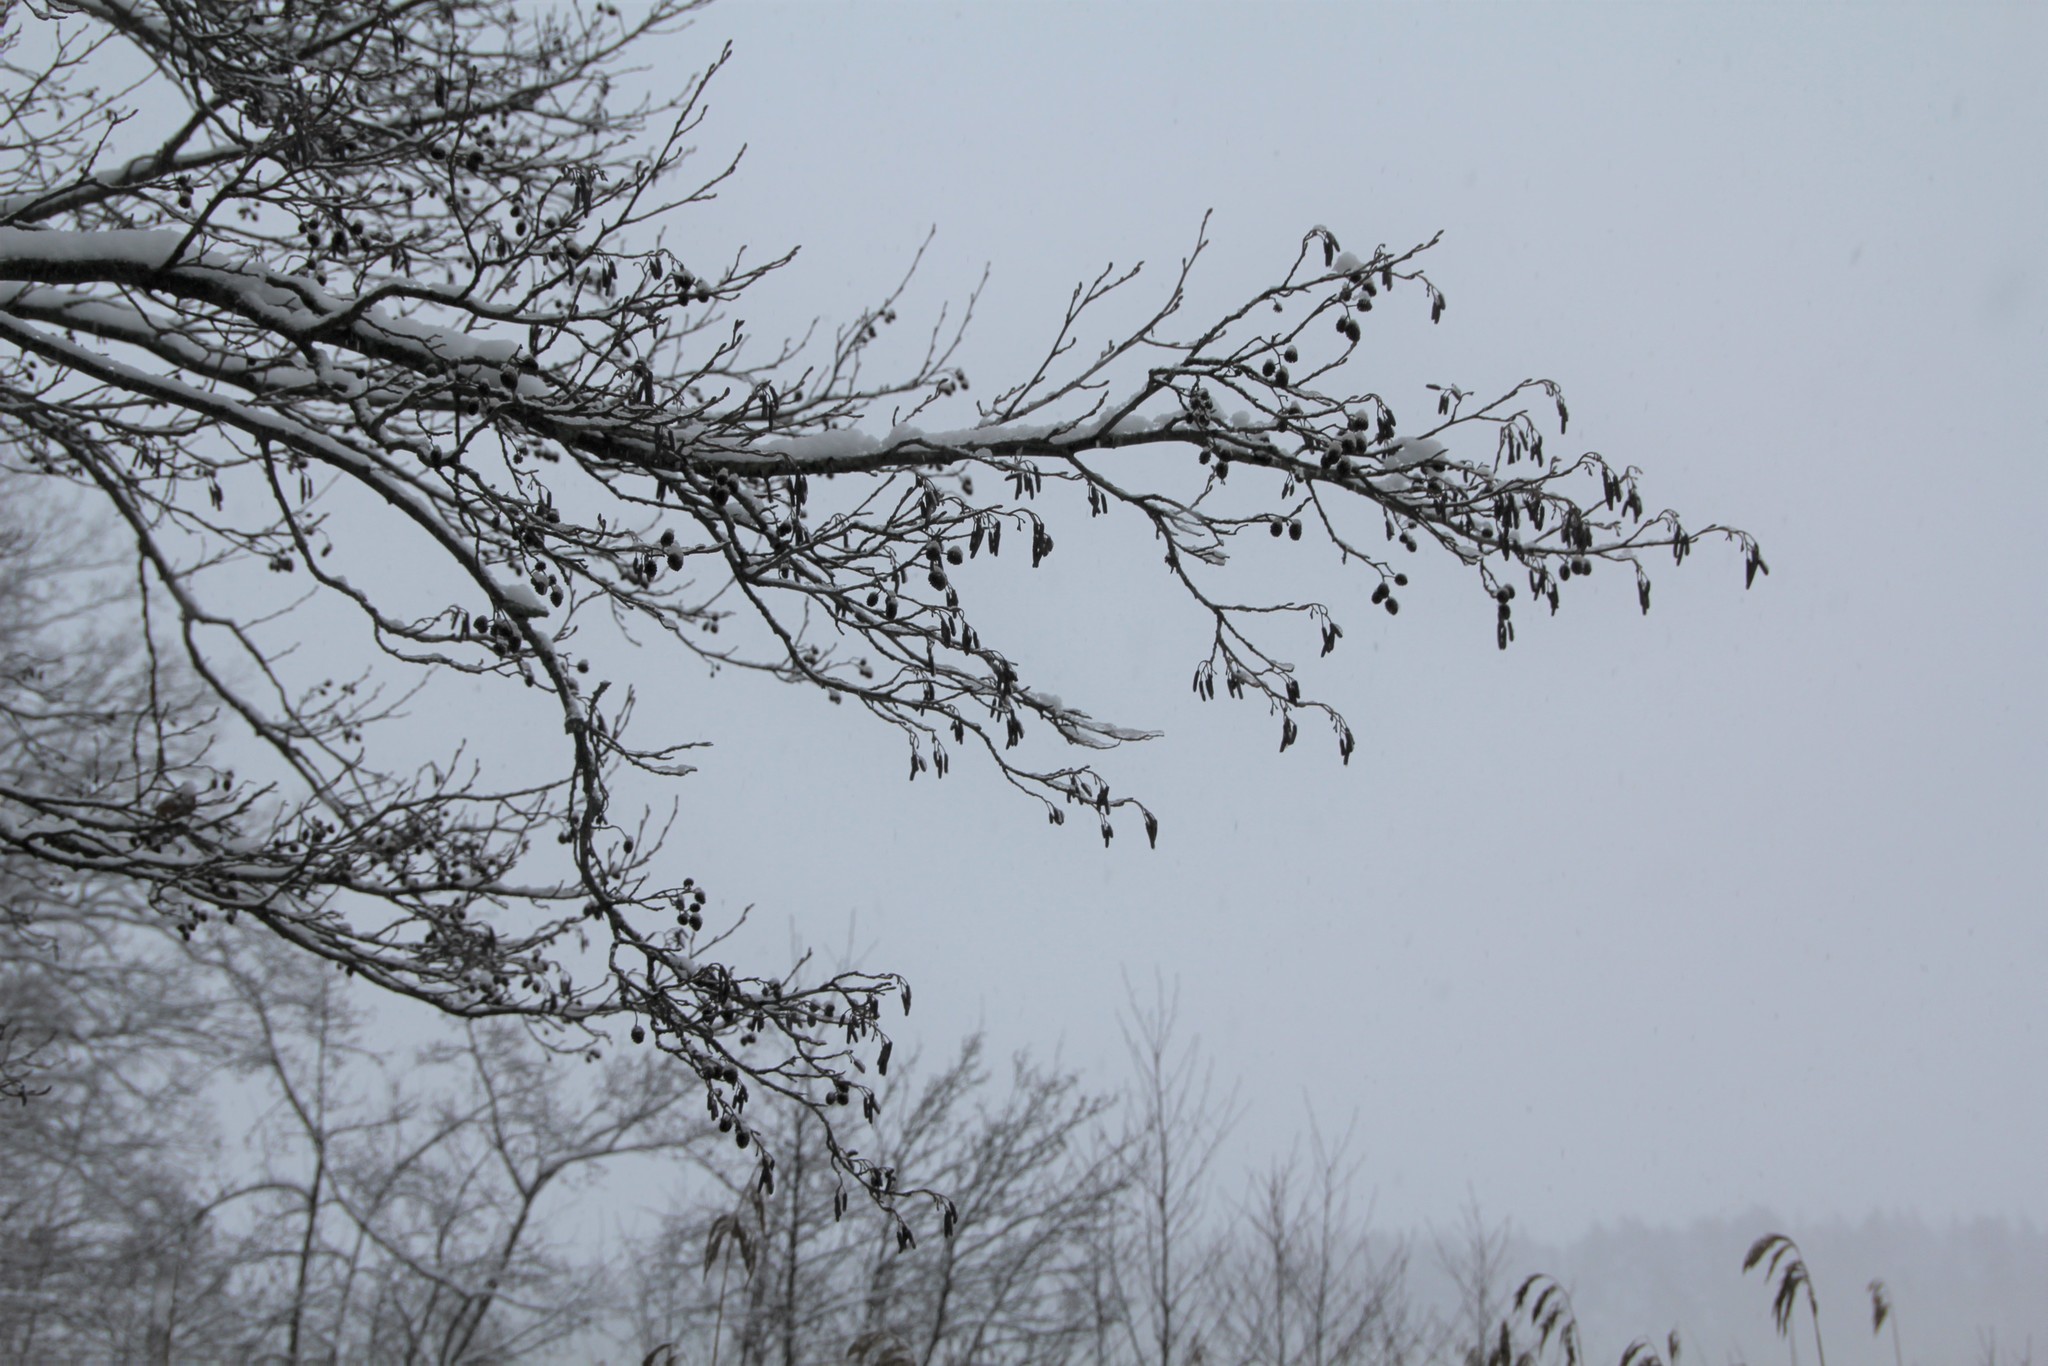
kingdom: Plantae
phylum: Tracheophyta
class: Magnoliopsida
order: Fagales
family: Betulaceae
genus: Alnus
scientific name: Alnus glutinosa
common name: Black alder
